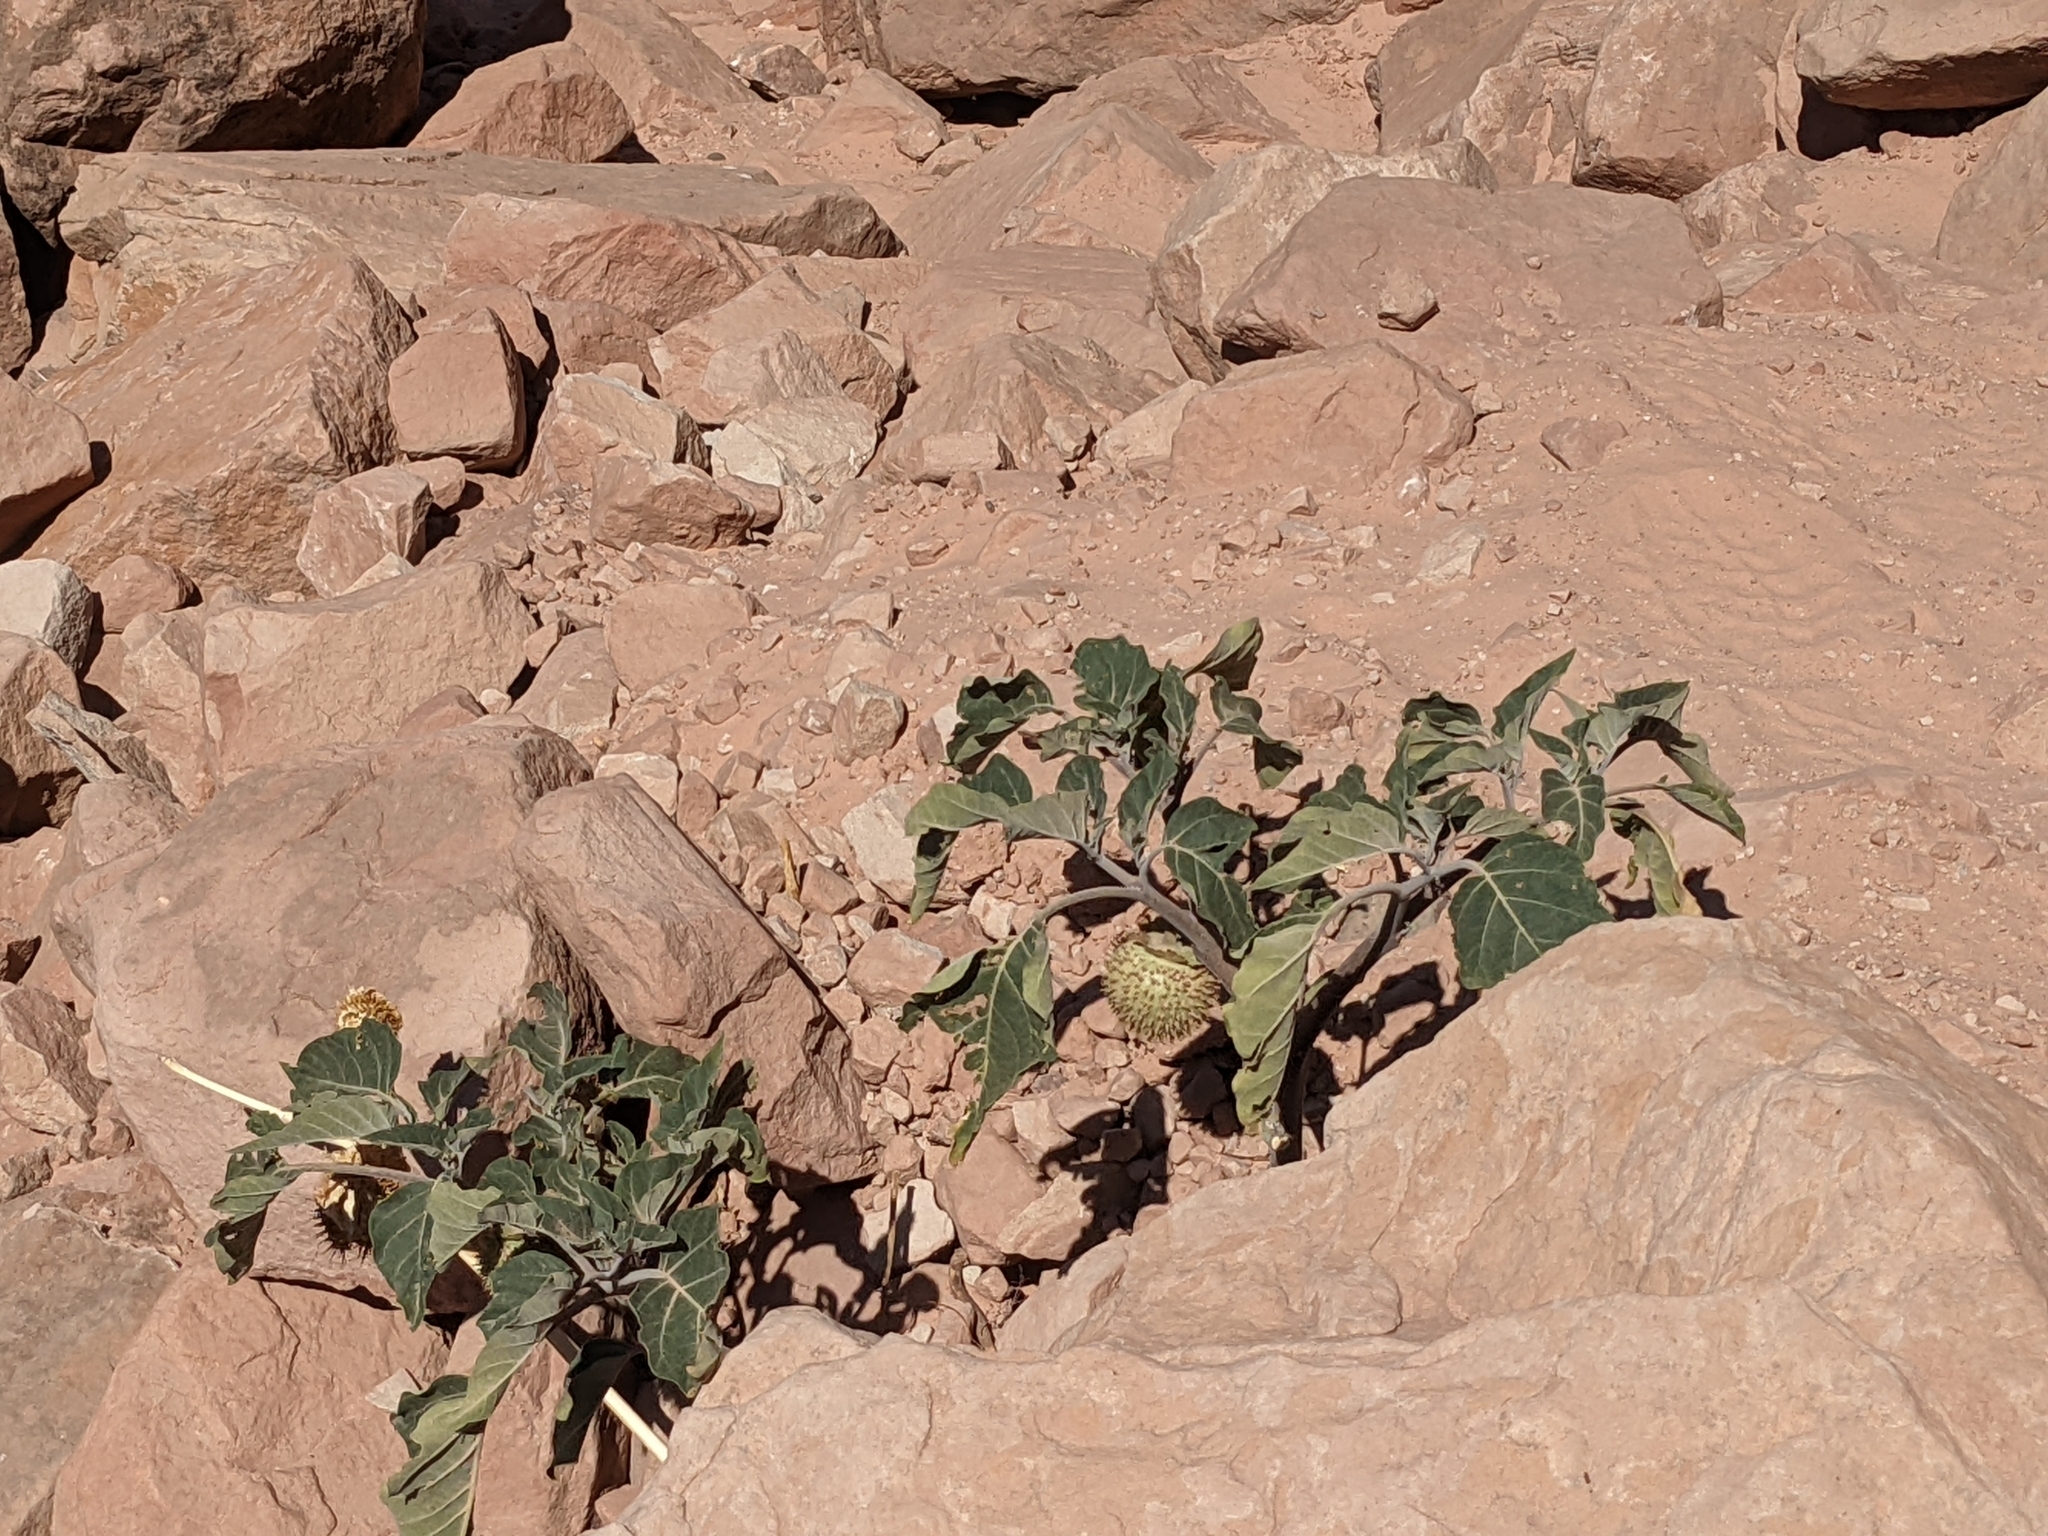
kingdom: Plantae
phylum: Tracheophyta
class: Magnoliopsida
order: Solanales
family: Solanaceae
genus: Datura
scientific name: Datura wrightii
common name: Sacred thorn-apple
